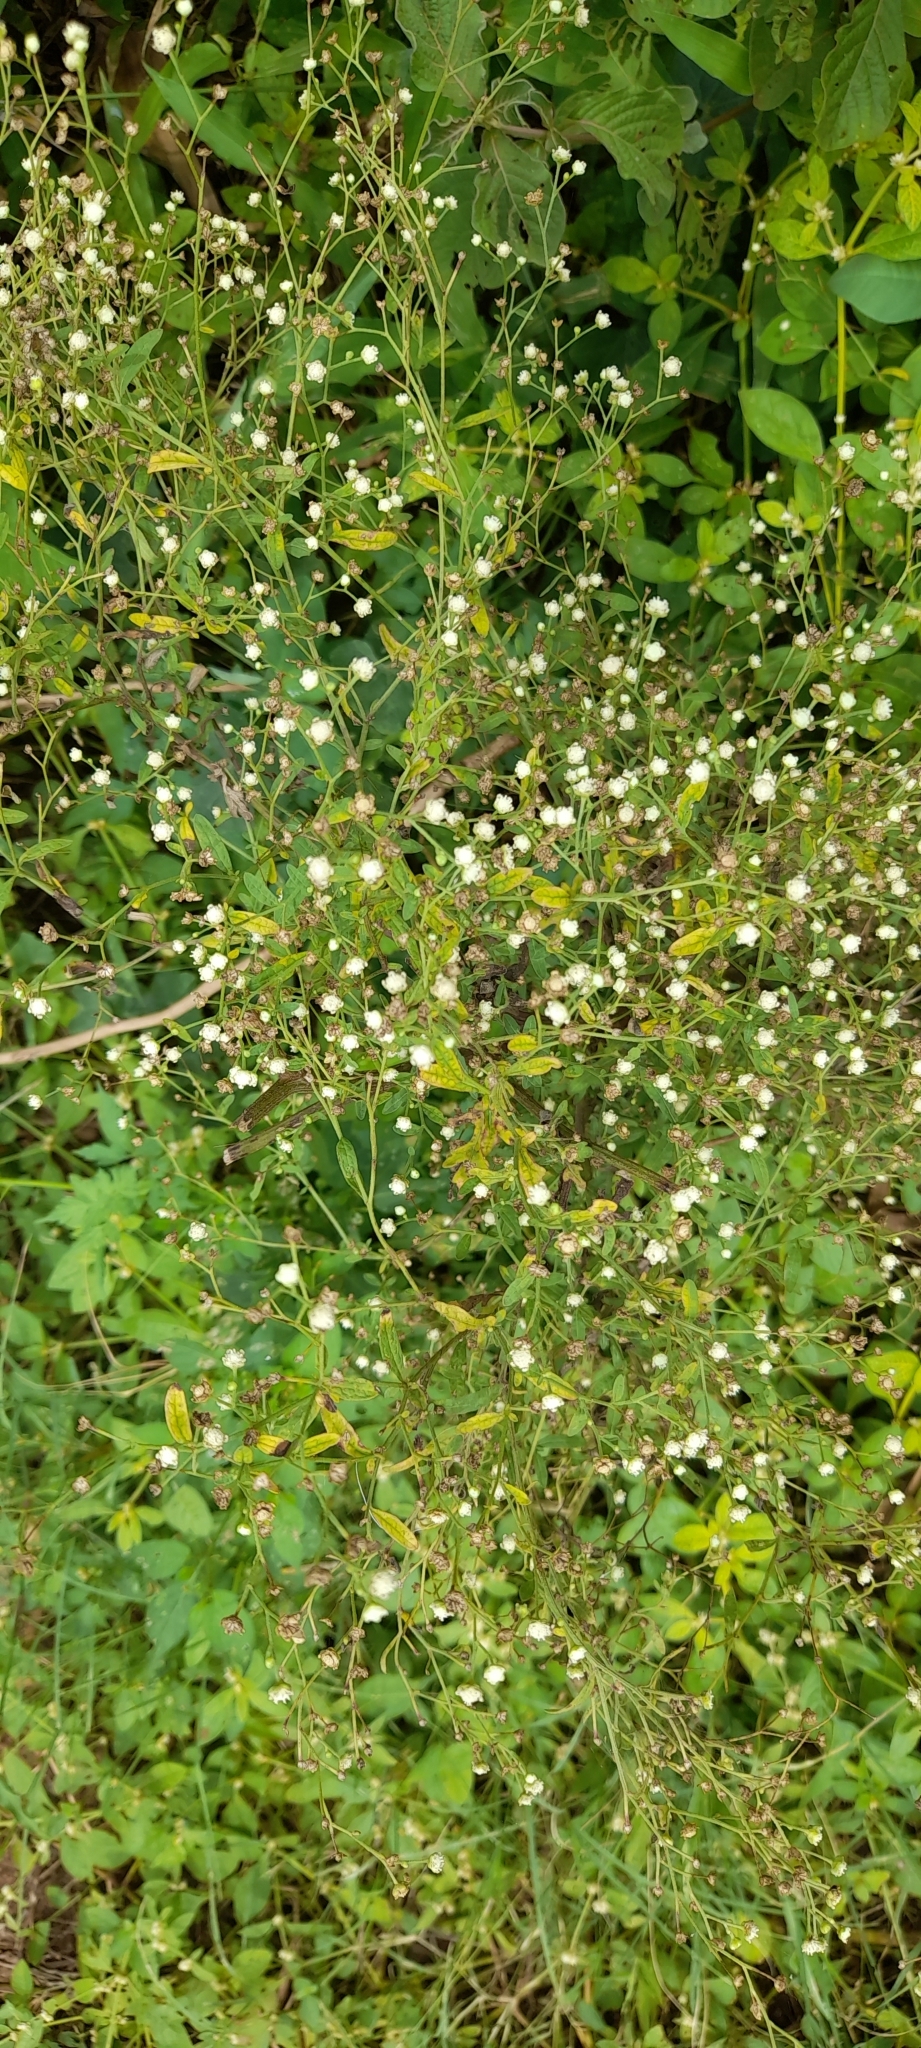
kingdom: Plantae
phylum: Tracheophyta
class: Magnoliopsida
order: Asterales
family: Asteraceae
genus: Parthenium
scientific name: Parthenium hysterophorus
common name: Santa maria feverfew
